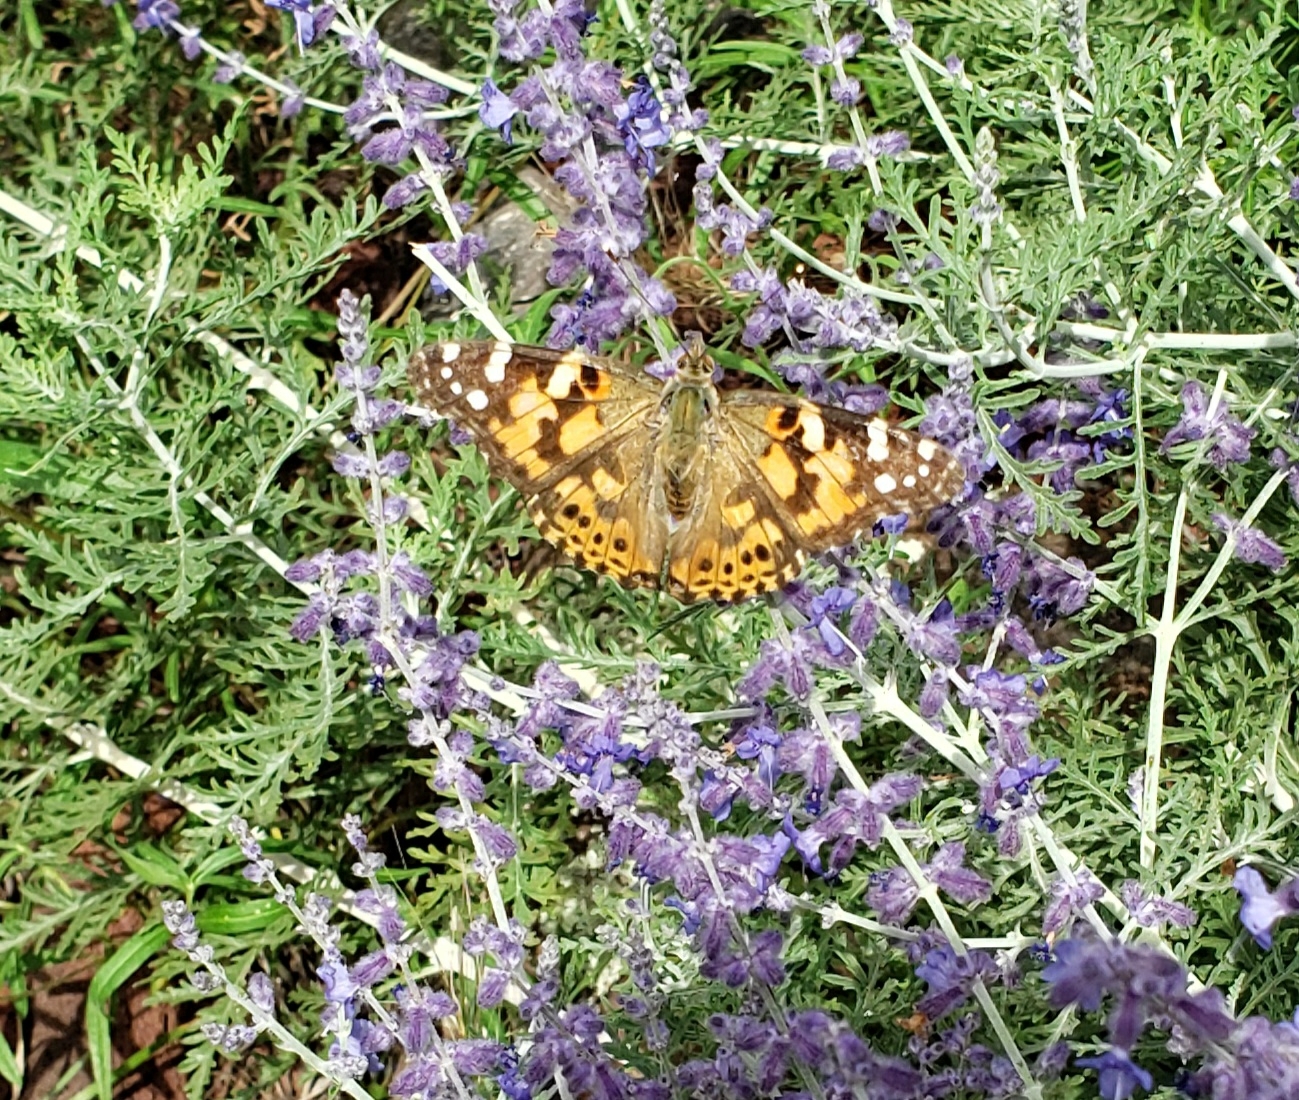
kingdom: Animalia
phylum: Arthropoda
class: Insecta
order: Lepidoptera
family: Nymphalidae
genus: Vanessa
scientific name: Vanessa cardui
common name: Painted lady
